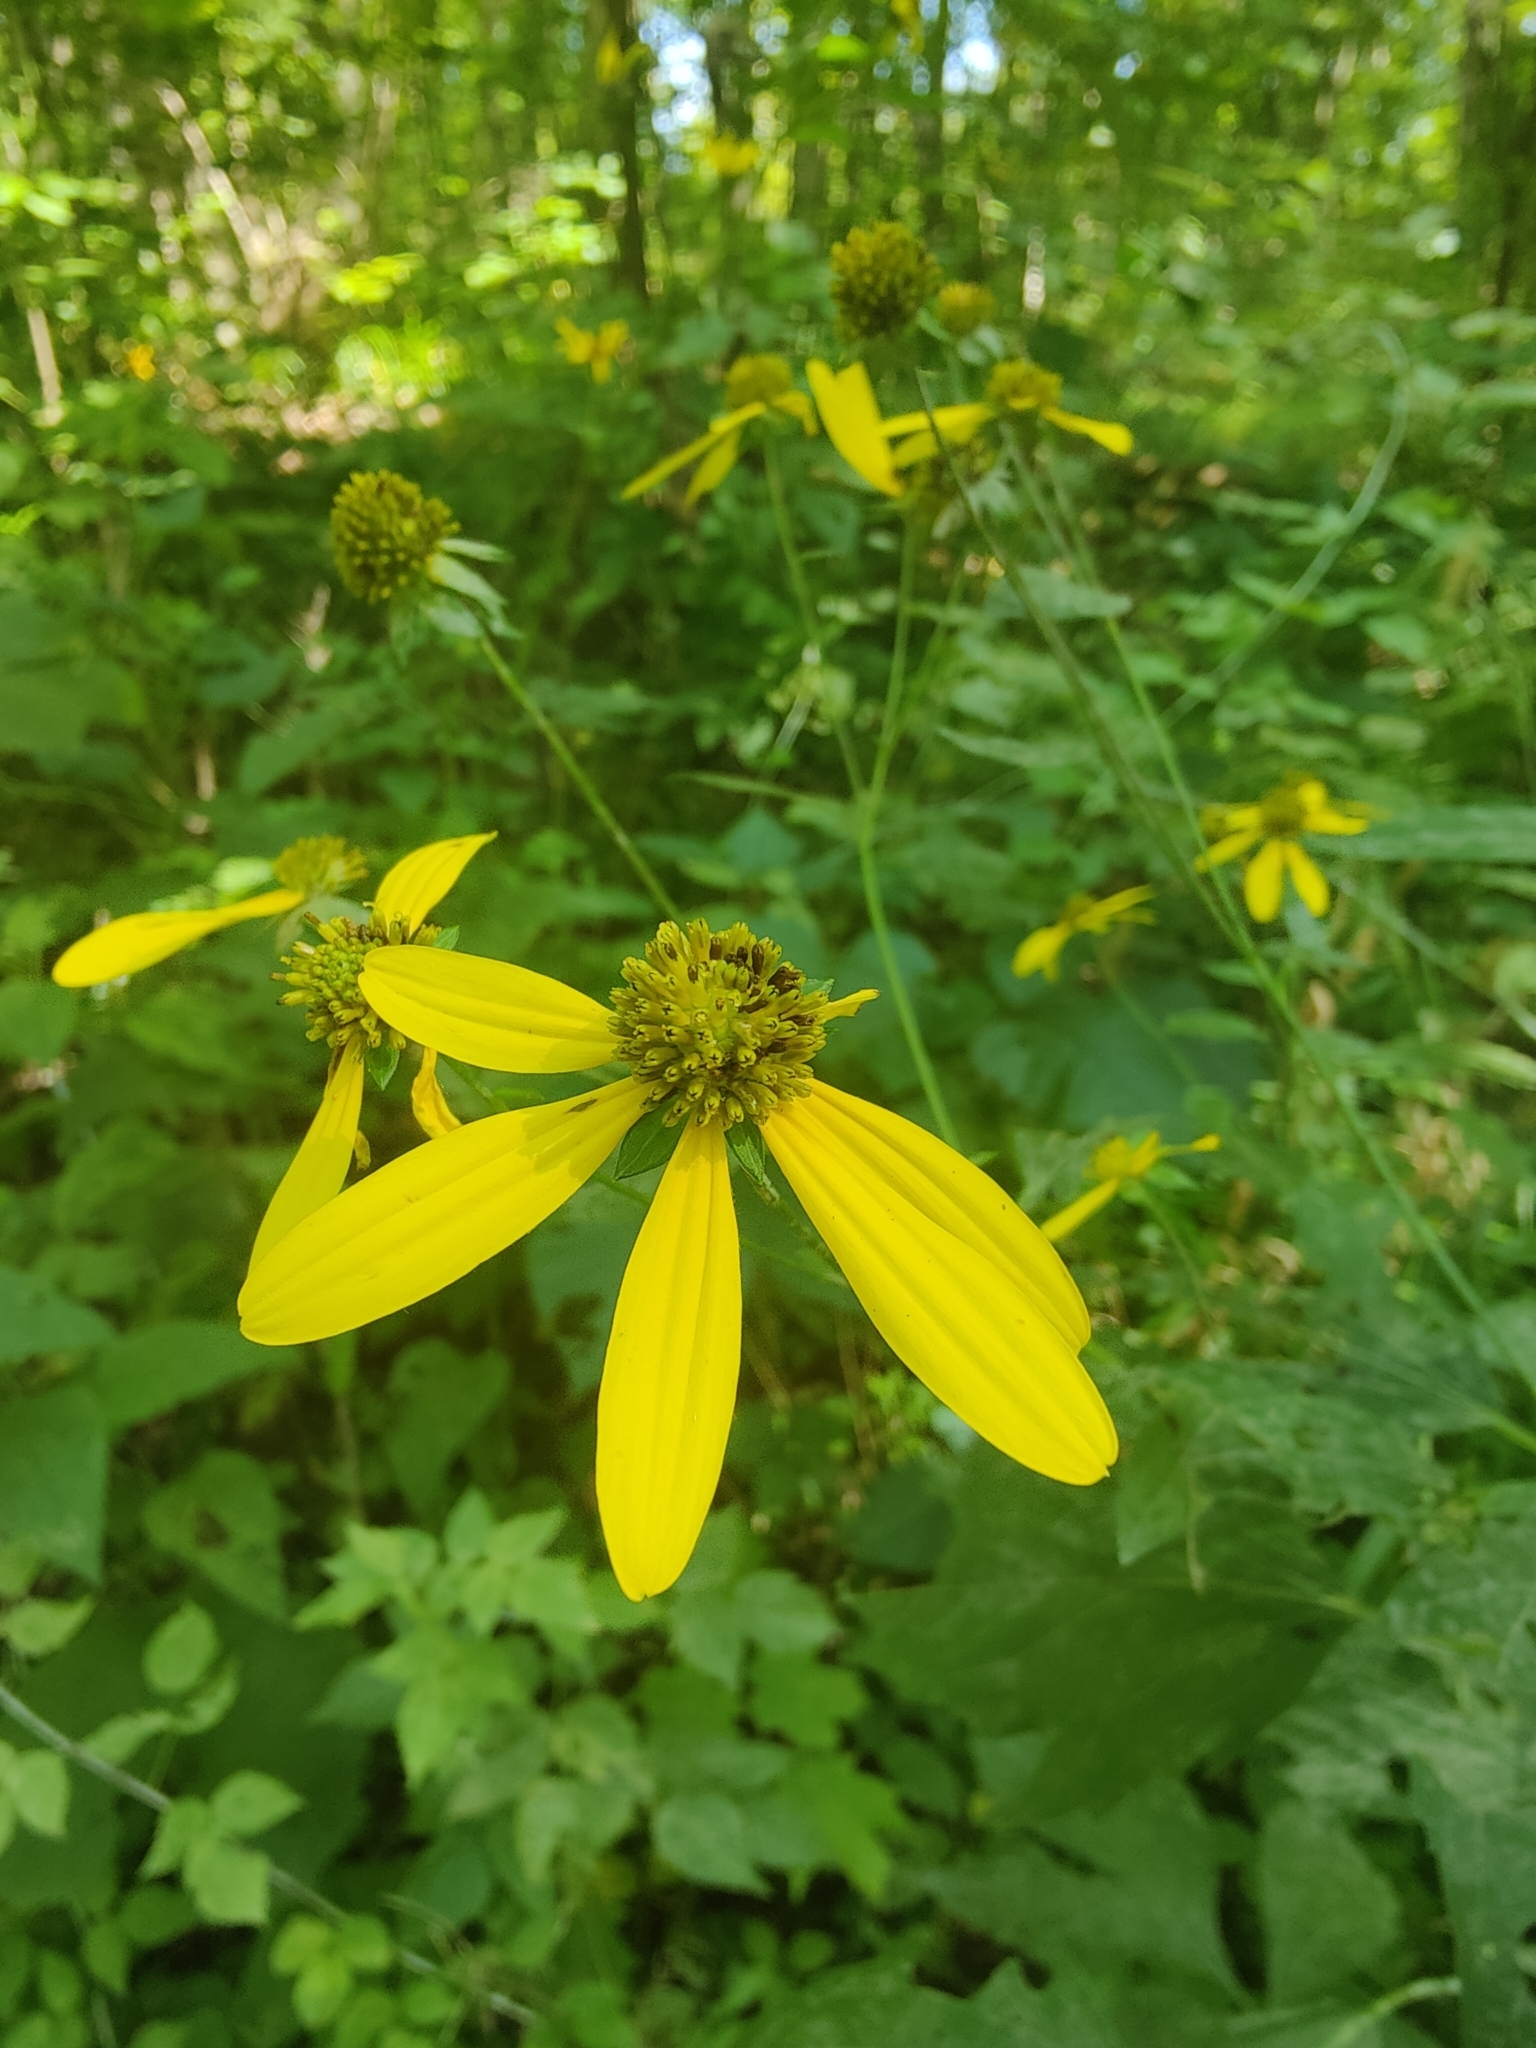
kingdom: Plantae
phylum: Tracheophyta
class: Magnoliopsida
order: Asterales
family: Asteraceae
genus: Rudbeckia
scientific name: Rudbeckia laciniata
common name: Coneflower
